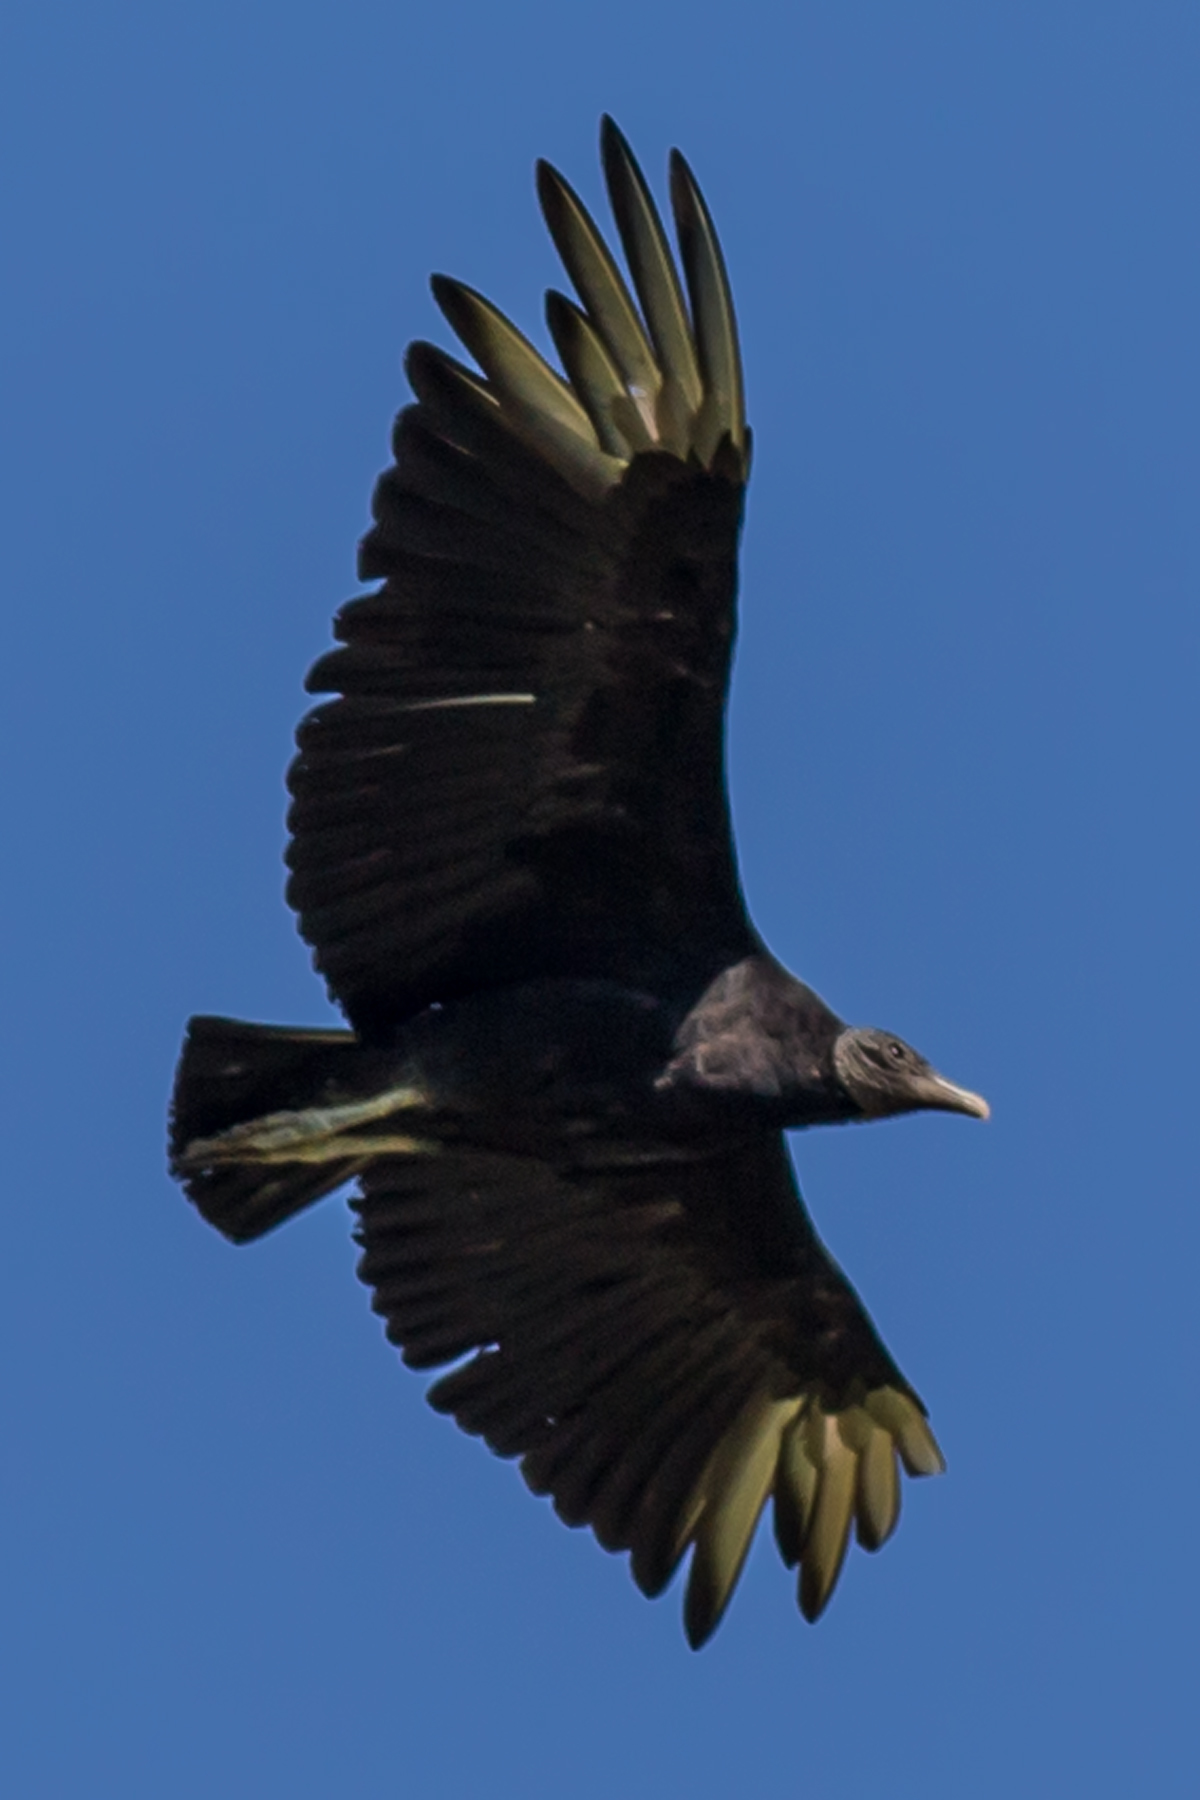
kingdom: Animalia
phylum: Chordata
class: Aves
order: Accipitriformes
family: Cathartidae
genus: Coragyps
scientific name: Coragyps atratus
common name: Black vulture
